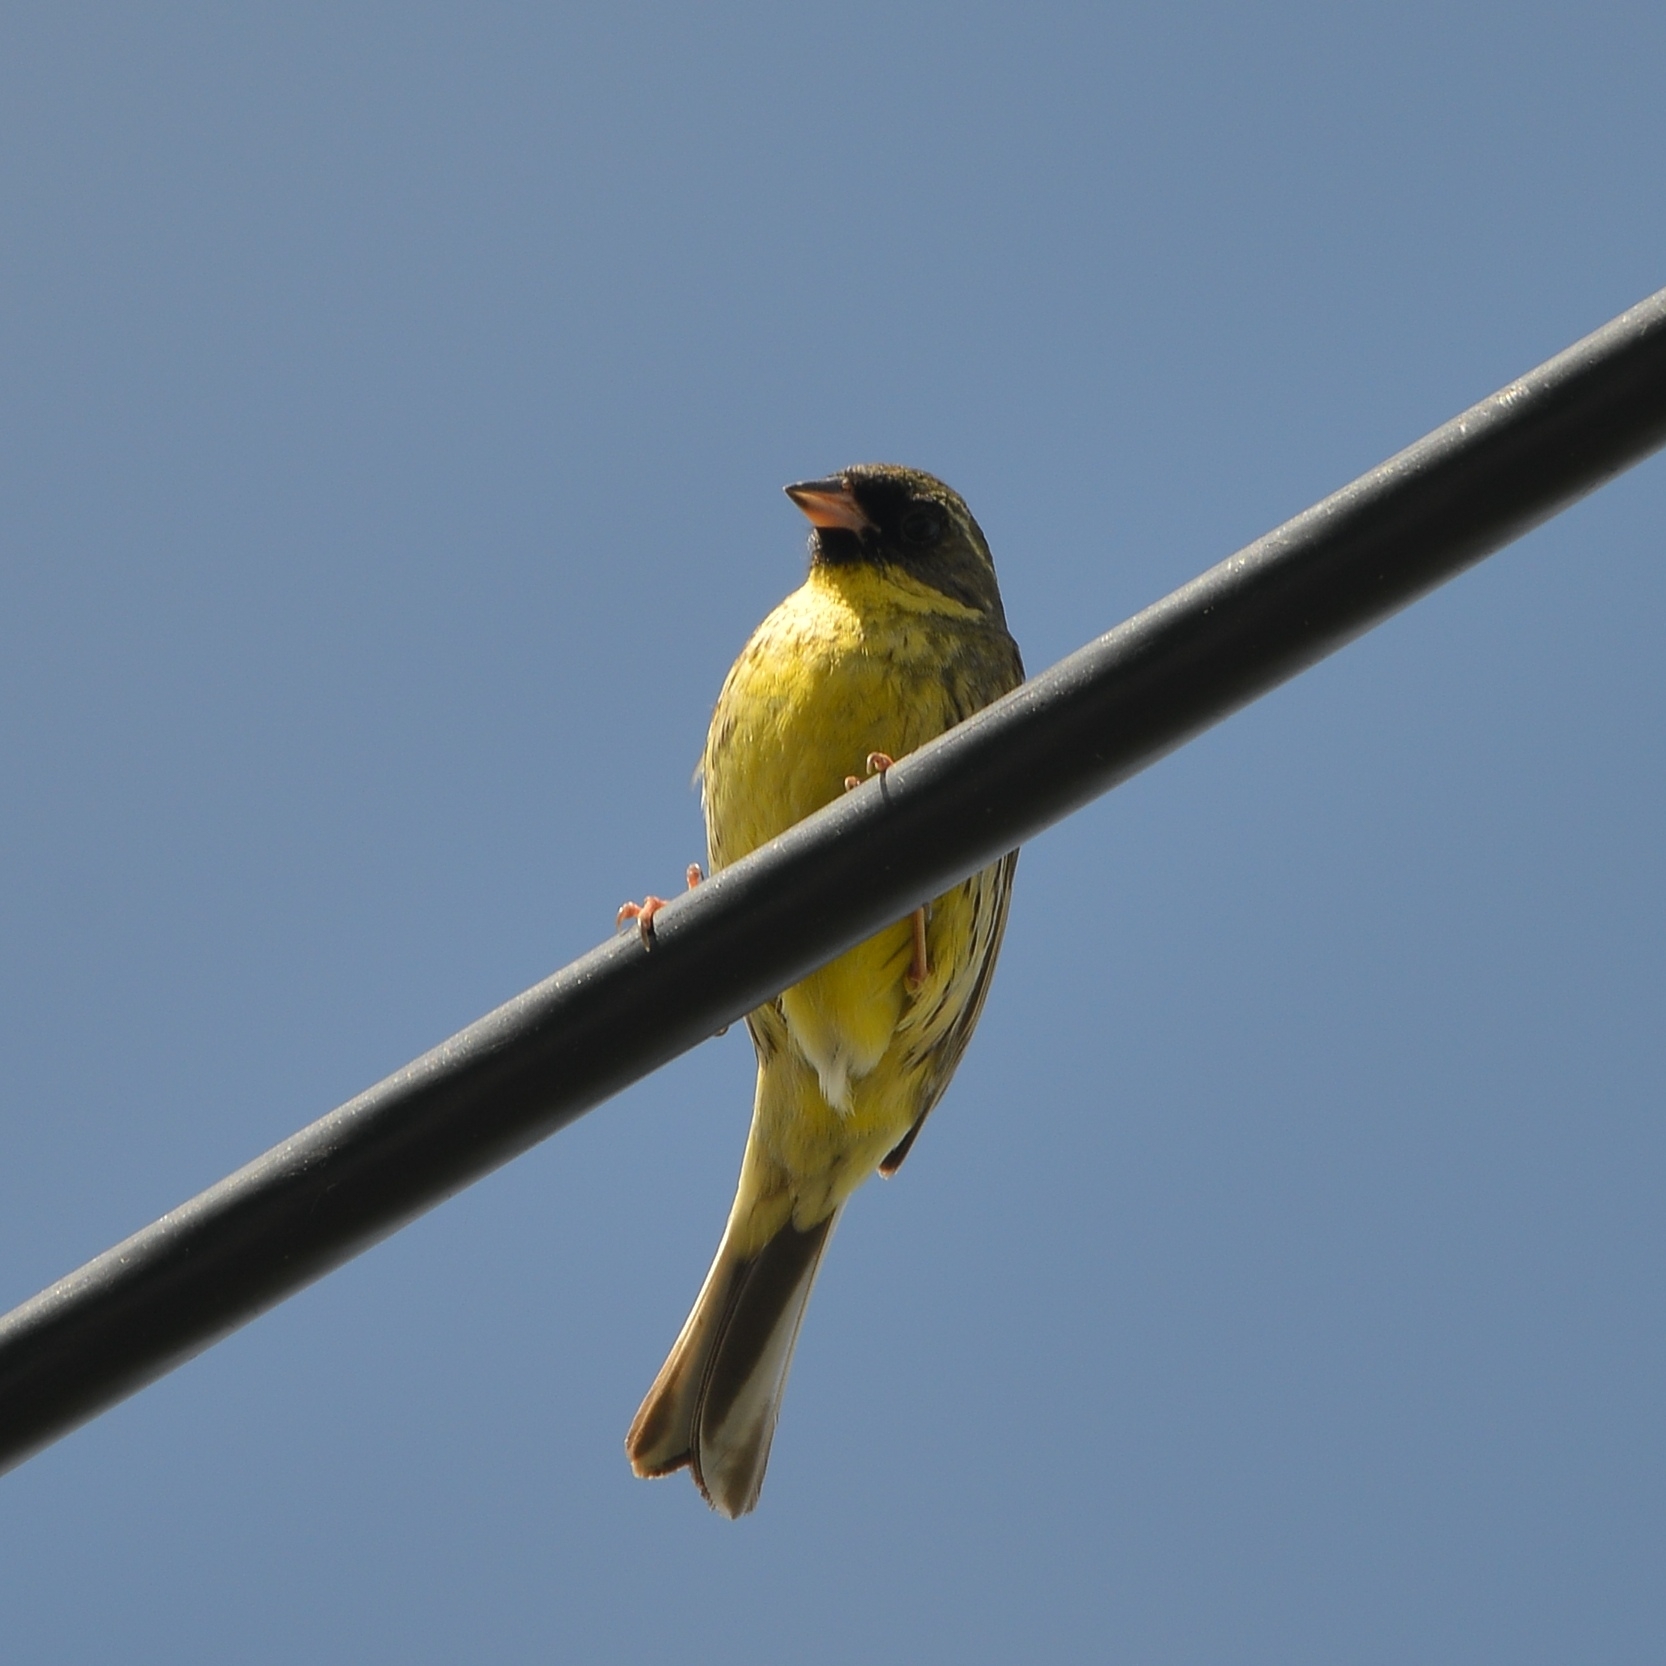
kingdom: Animalia
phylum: Chordata
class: Aves
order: Passeriformes
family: Emberizidae
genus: Emberiza
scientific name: Emberiza personata
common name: Masked bunting
